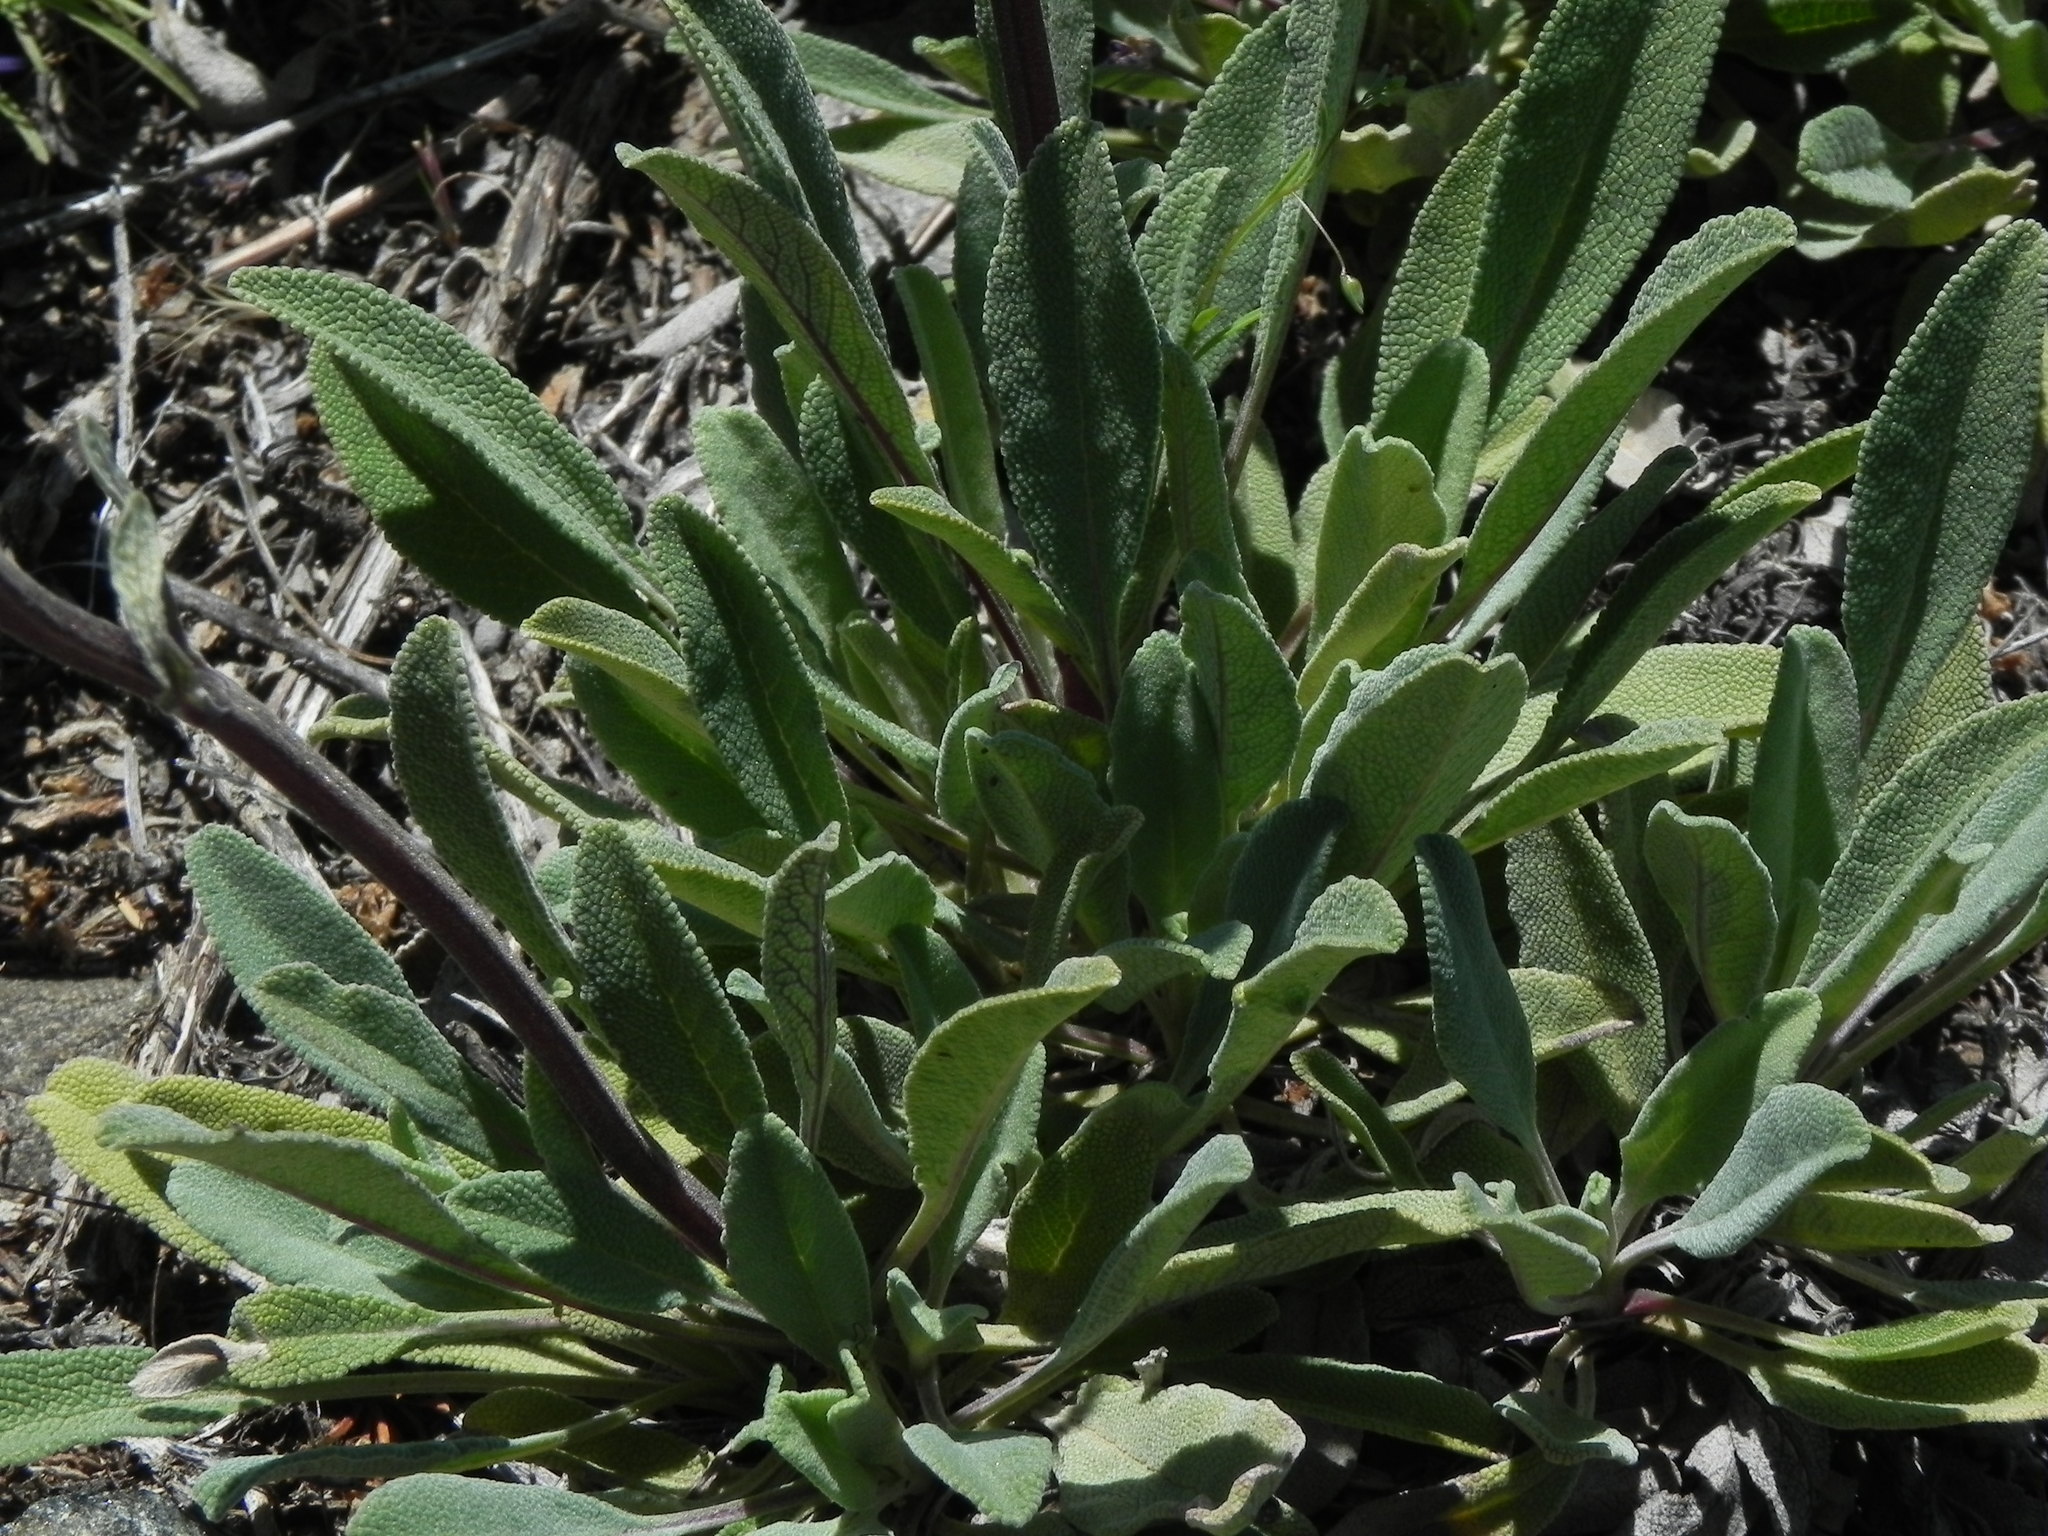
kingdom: Plantae
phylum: Tracheophyta
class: Magnoliopsida
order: Lamiales
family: Lamiaceae
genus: Salvia
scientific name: Salvia sonomensis
